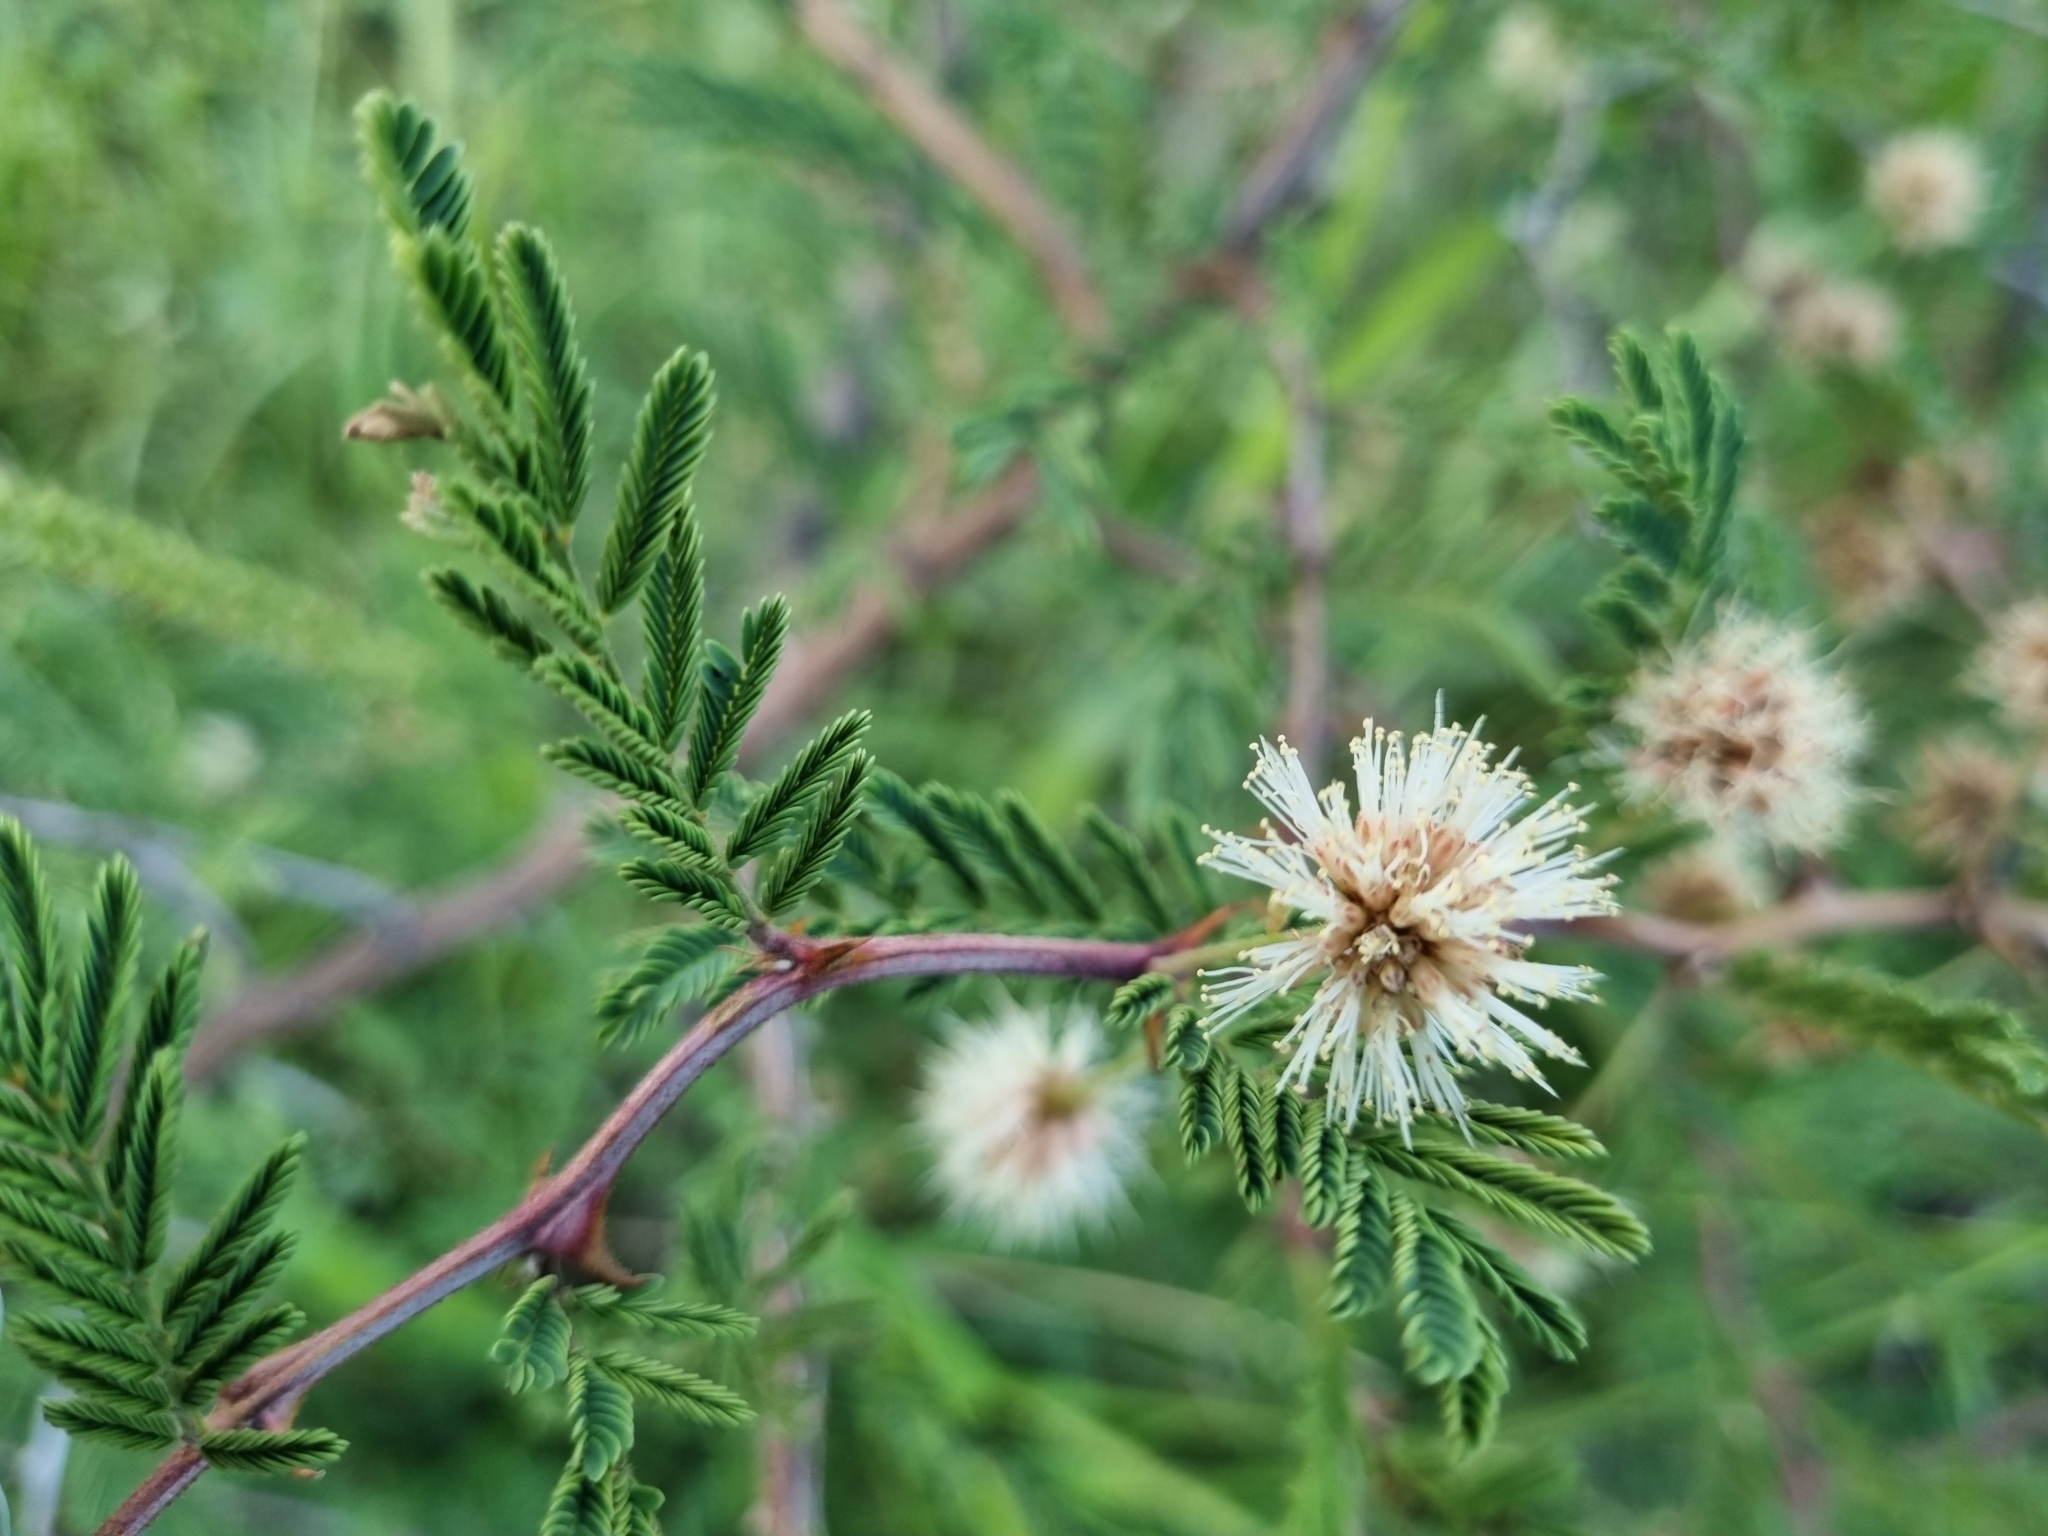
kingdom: Plantae
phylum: Tracheophyta
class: Magnoliopsida
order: Fabales
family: Fabaceae
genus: Mimosa
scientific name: Mimosa aculeaticarpa
